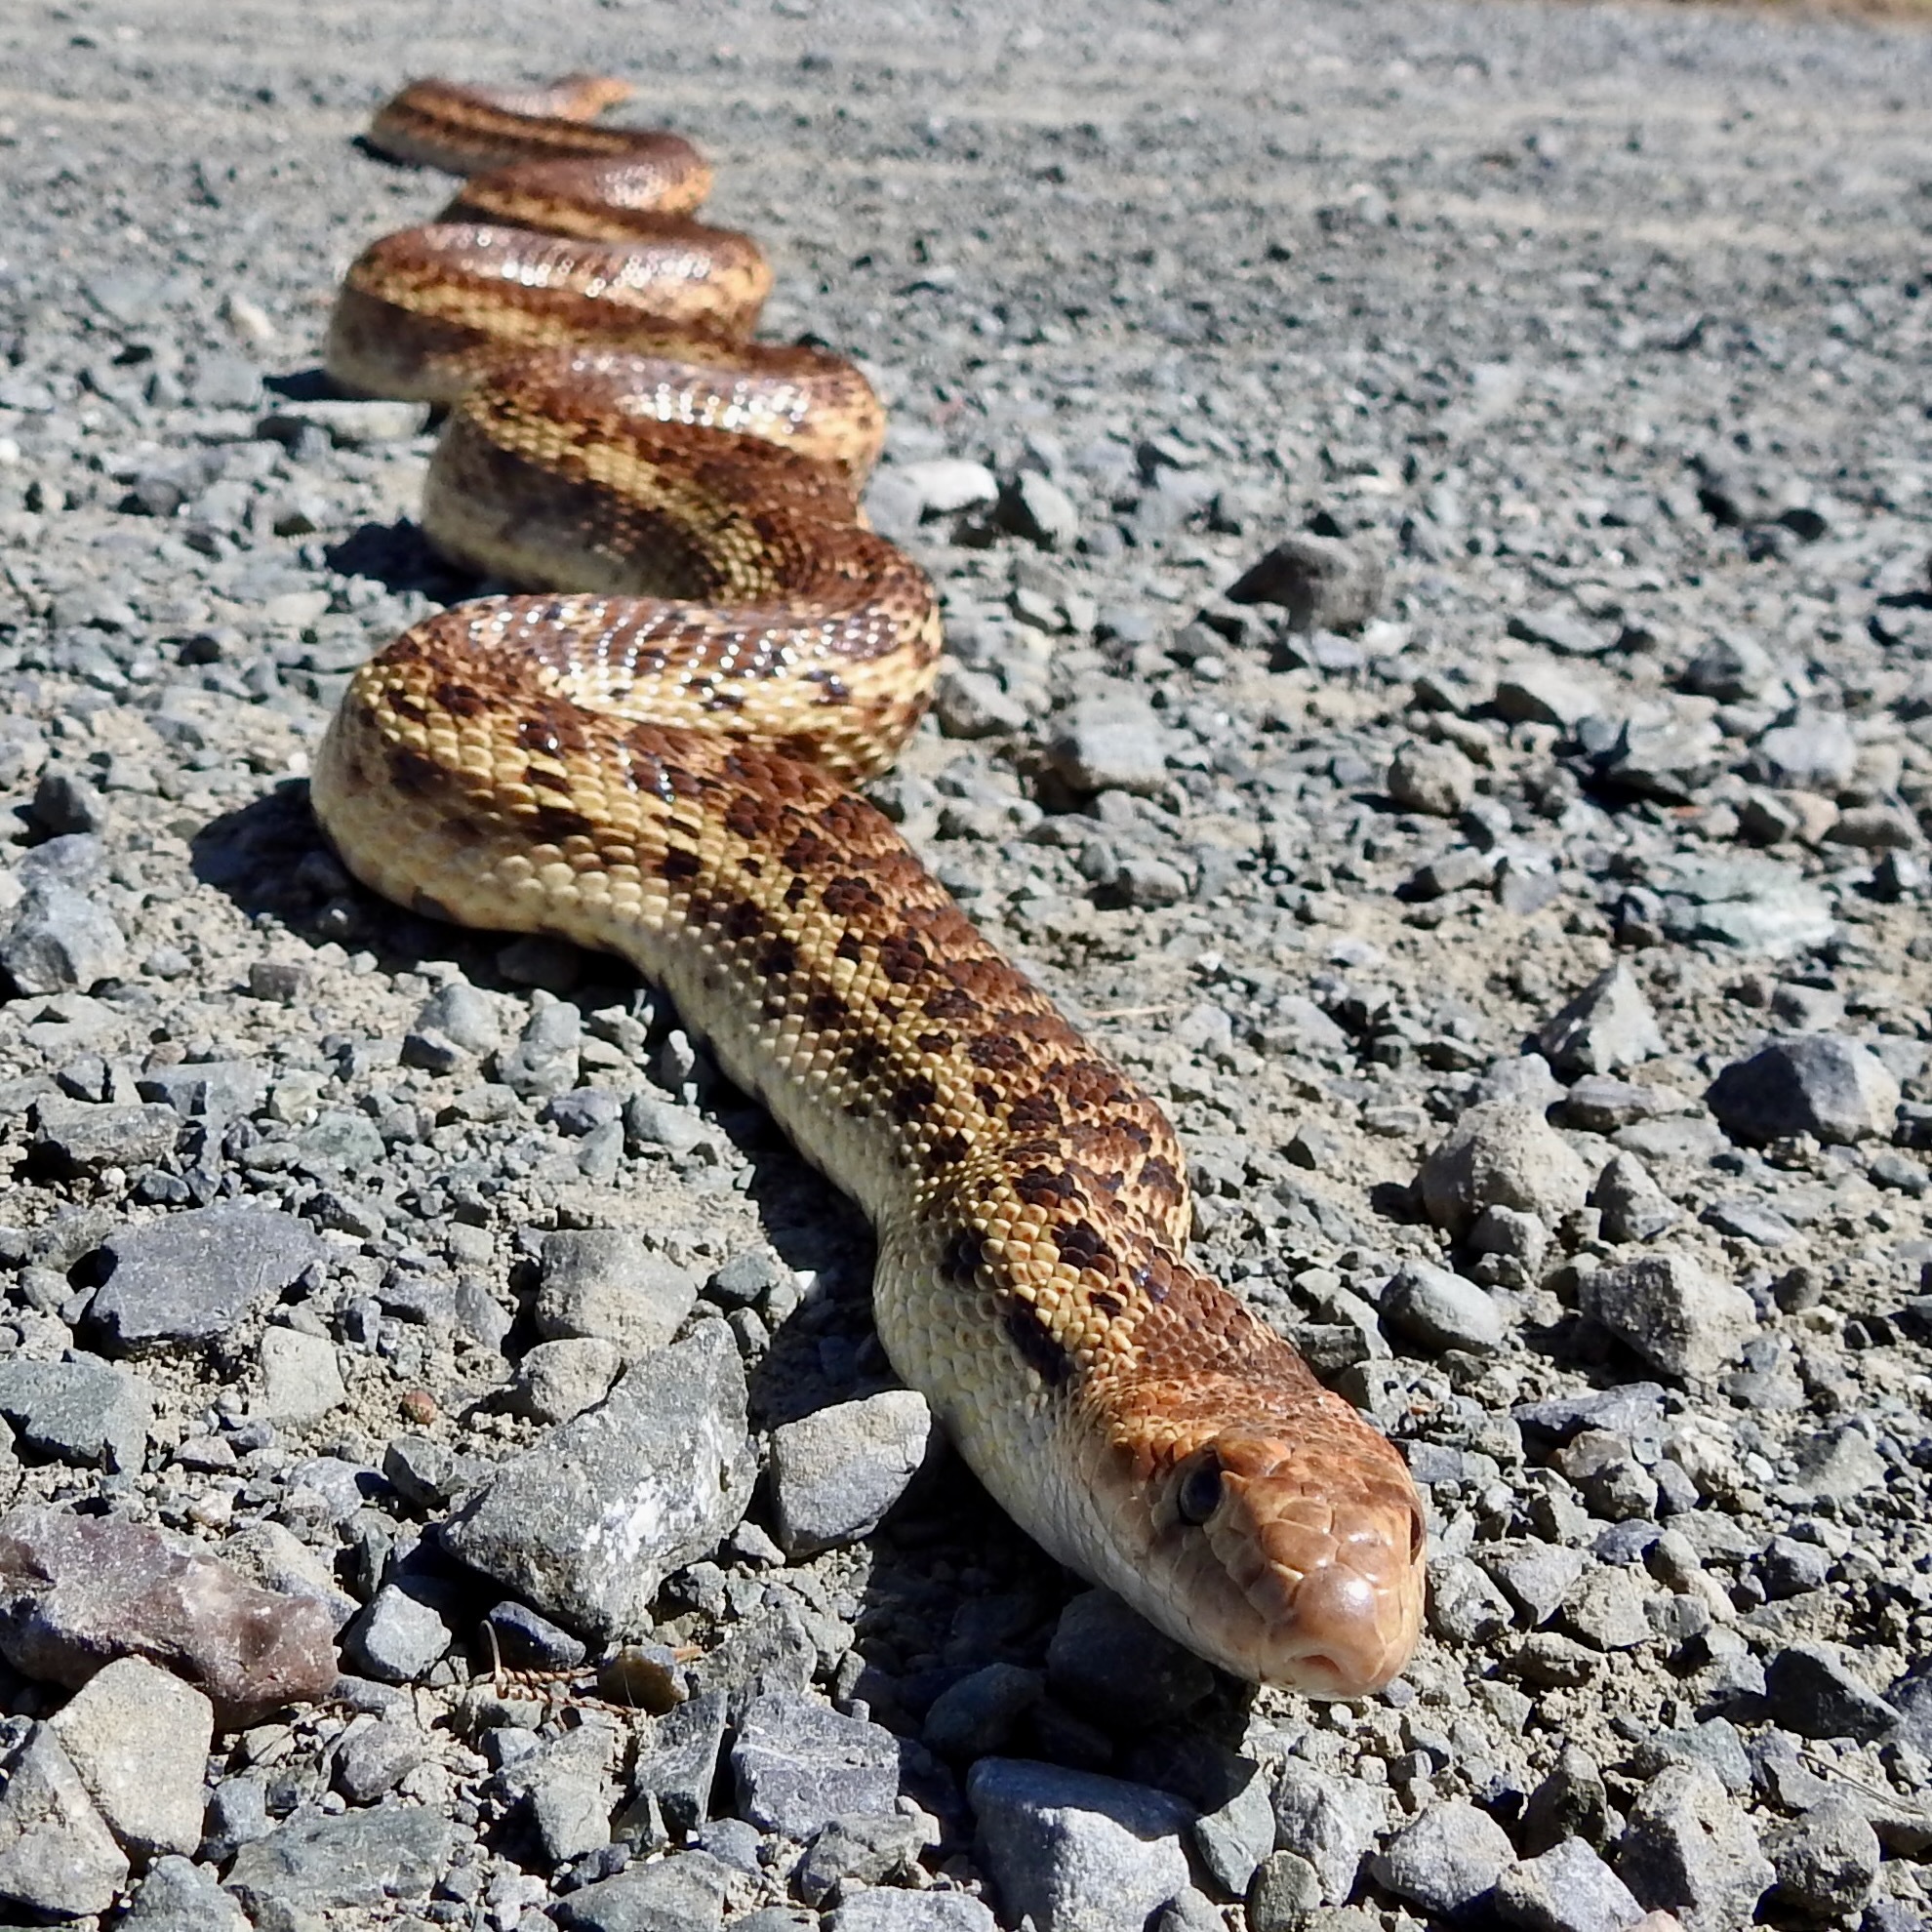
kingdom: Animalia
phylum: Chordata
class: Squamata
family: Colubridae
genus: Pituophis
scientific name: Pituophis catenifer
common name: Gopher snake
